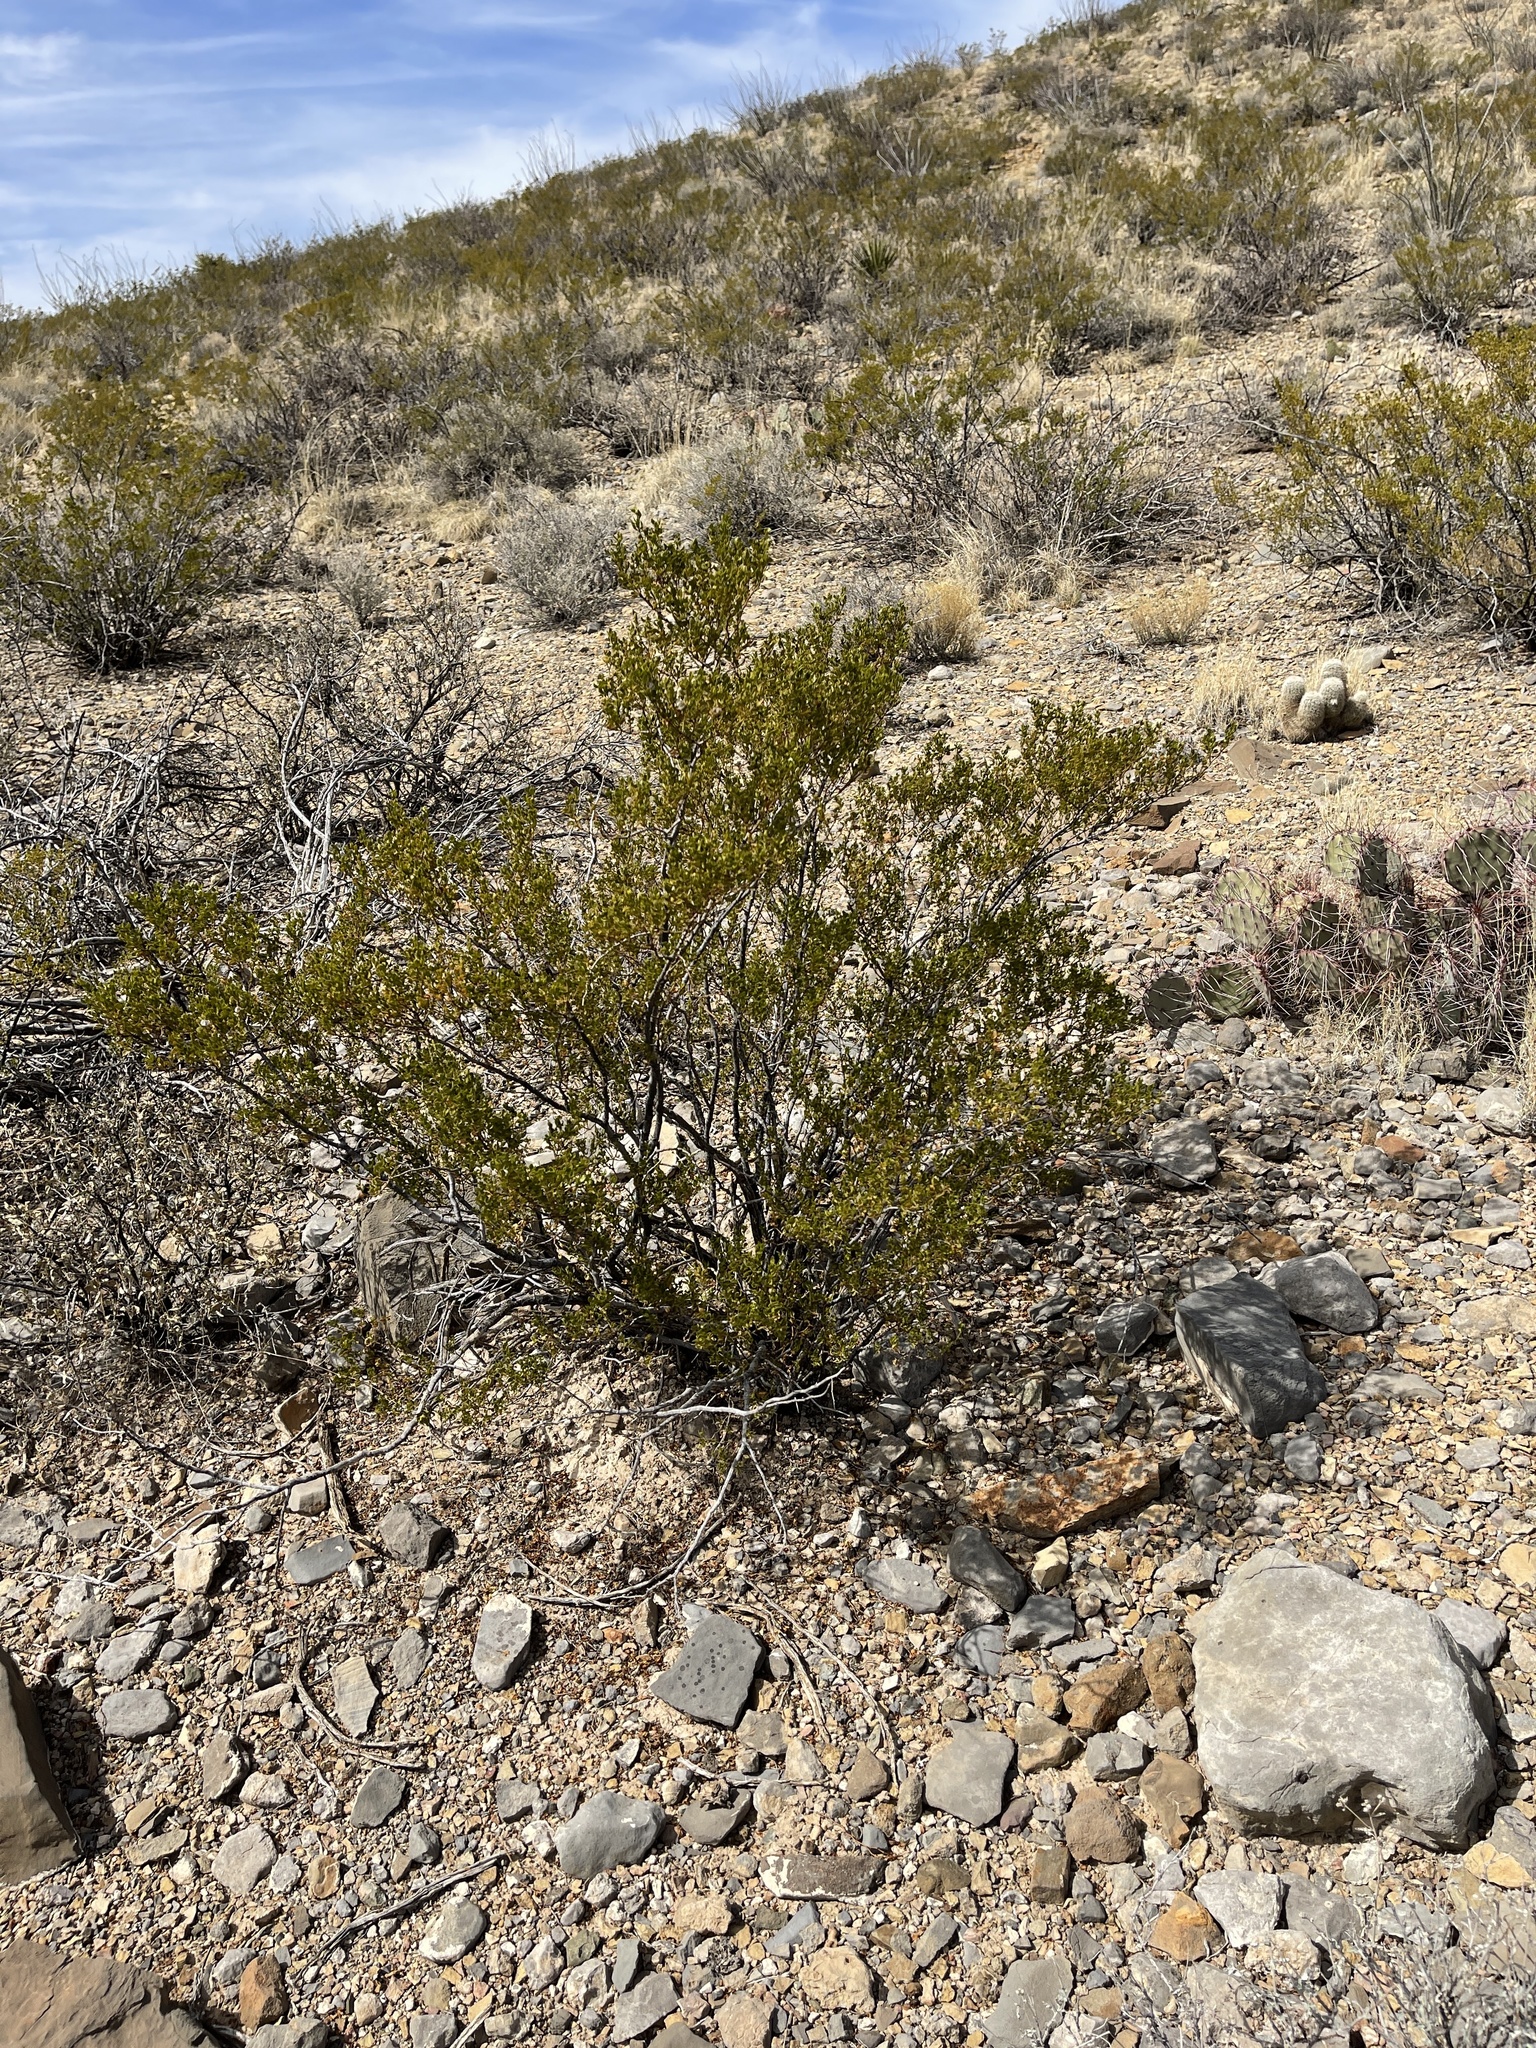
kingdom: Plantae
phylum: Tracheophyta
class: Magnoliopsida
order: Zygophyllales
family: Zygophyllaceae
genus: Larrea
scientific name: Larrea tridentata
